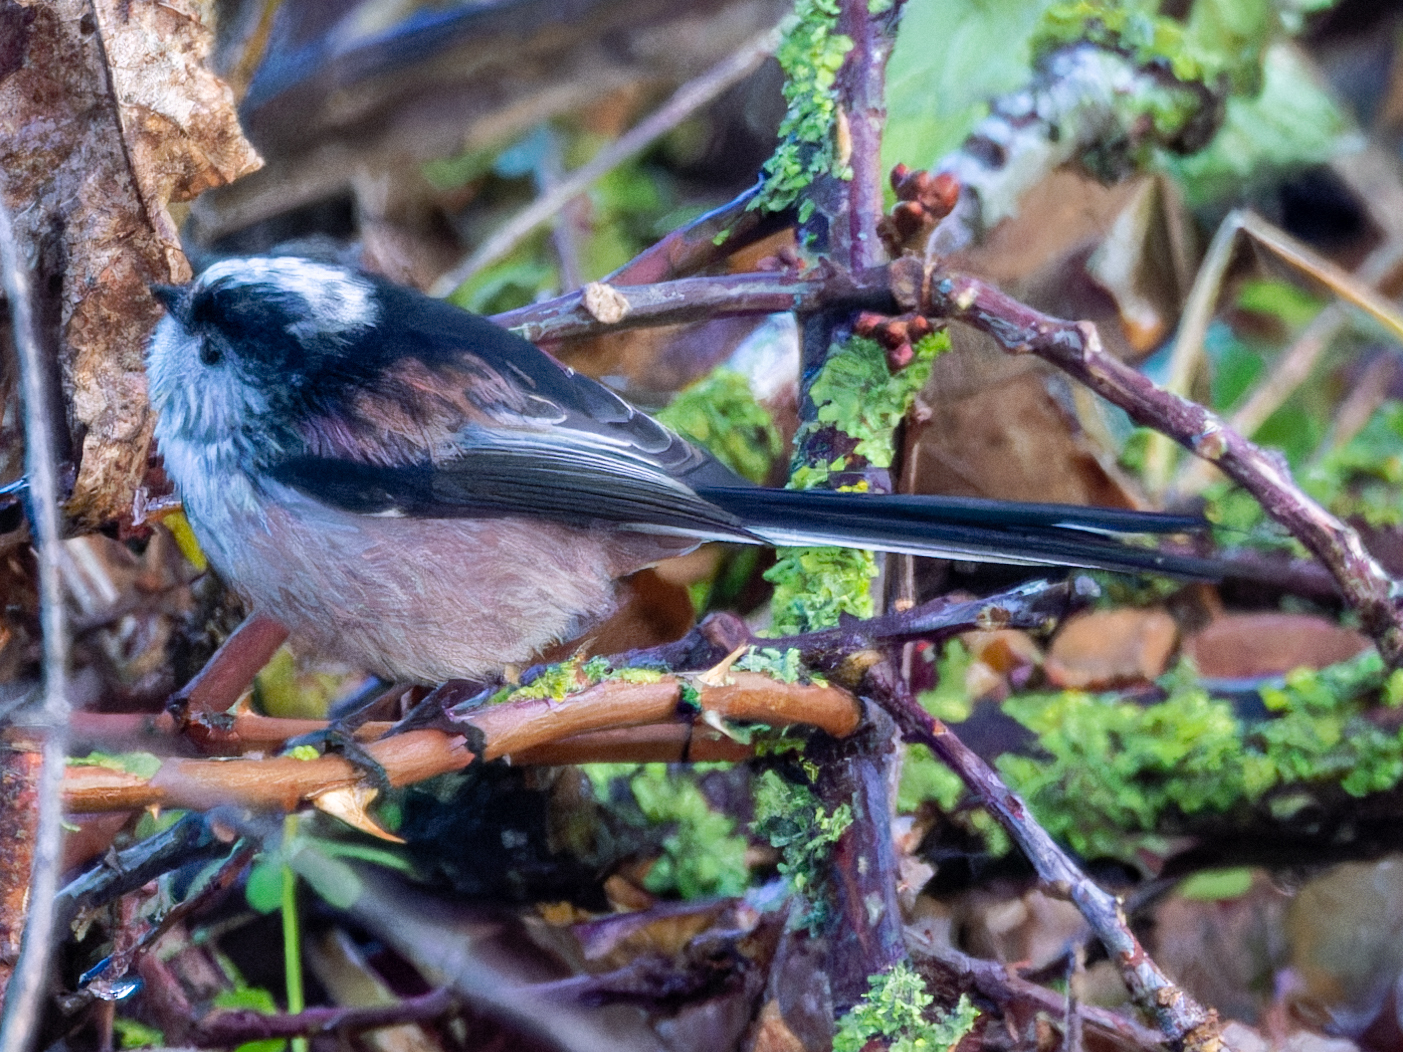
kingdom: Animalia
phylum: Chordata
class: Aves
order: Passeriformes
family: Aegithalidae
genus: Aegithalos
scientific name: Aegithalos caudatus
